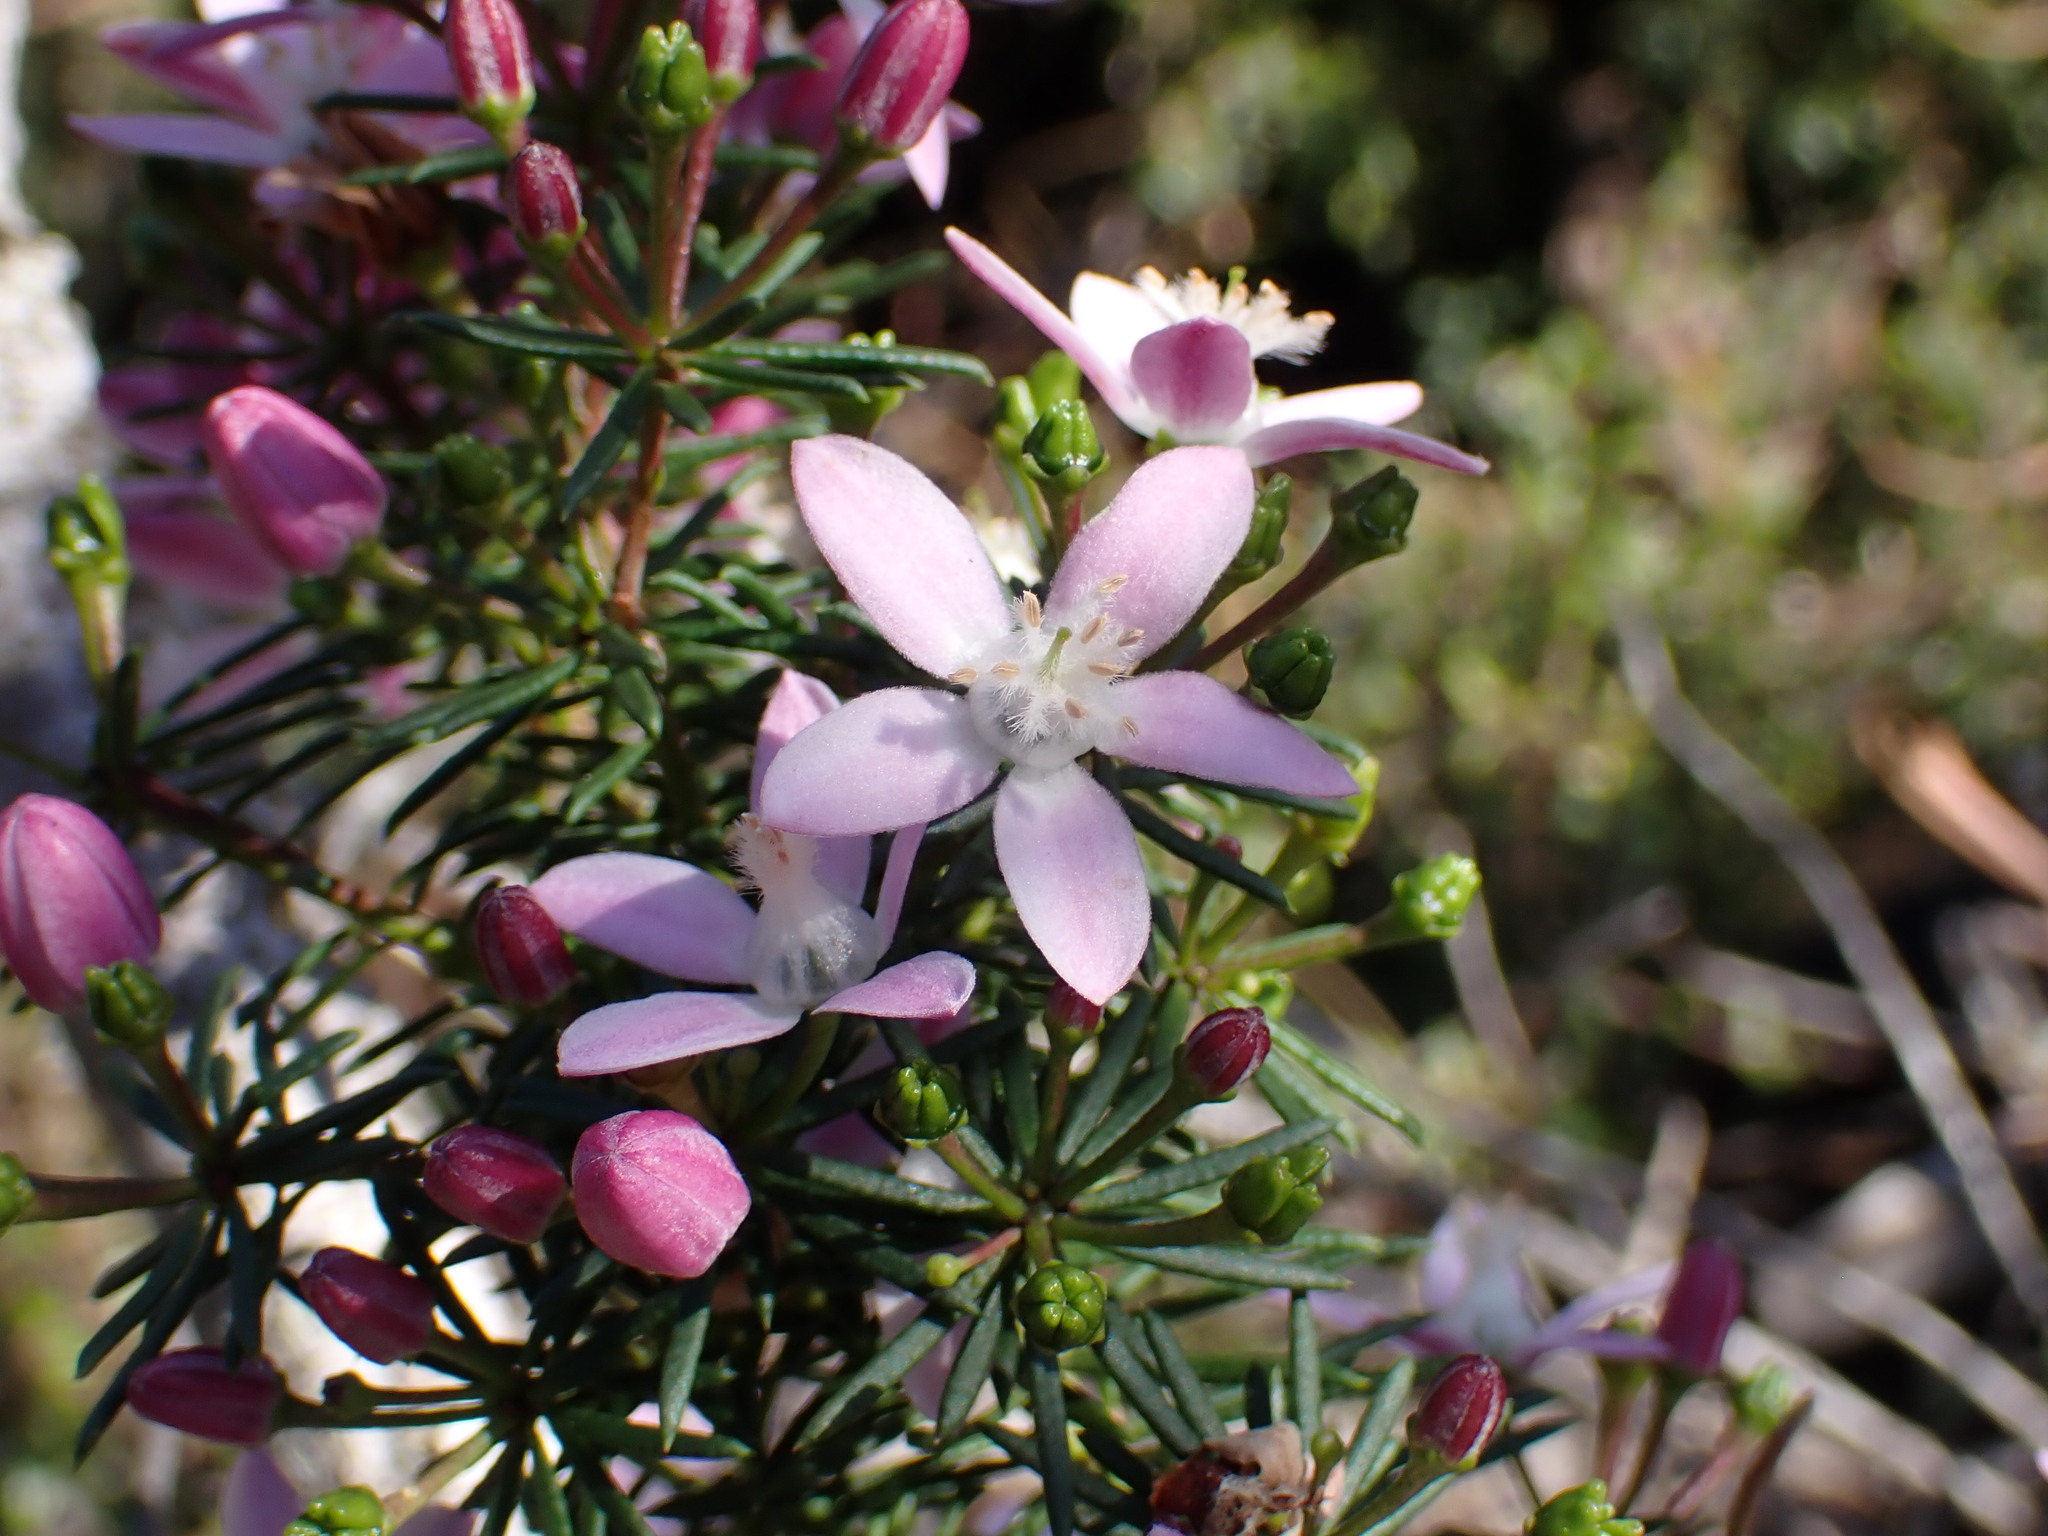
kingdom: Plantae
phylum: Tracheophyta
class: Magnoliopsida
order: Sapindales
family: Rutaceae
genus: Philotheca
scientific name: Philotheca salsolifolia
